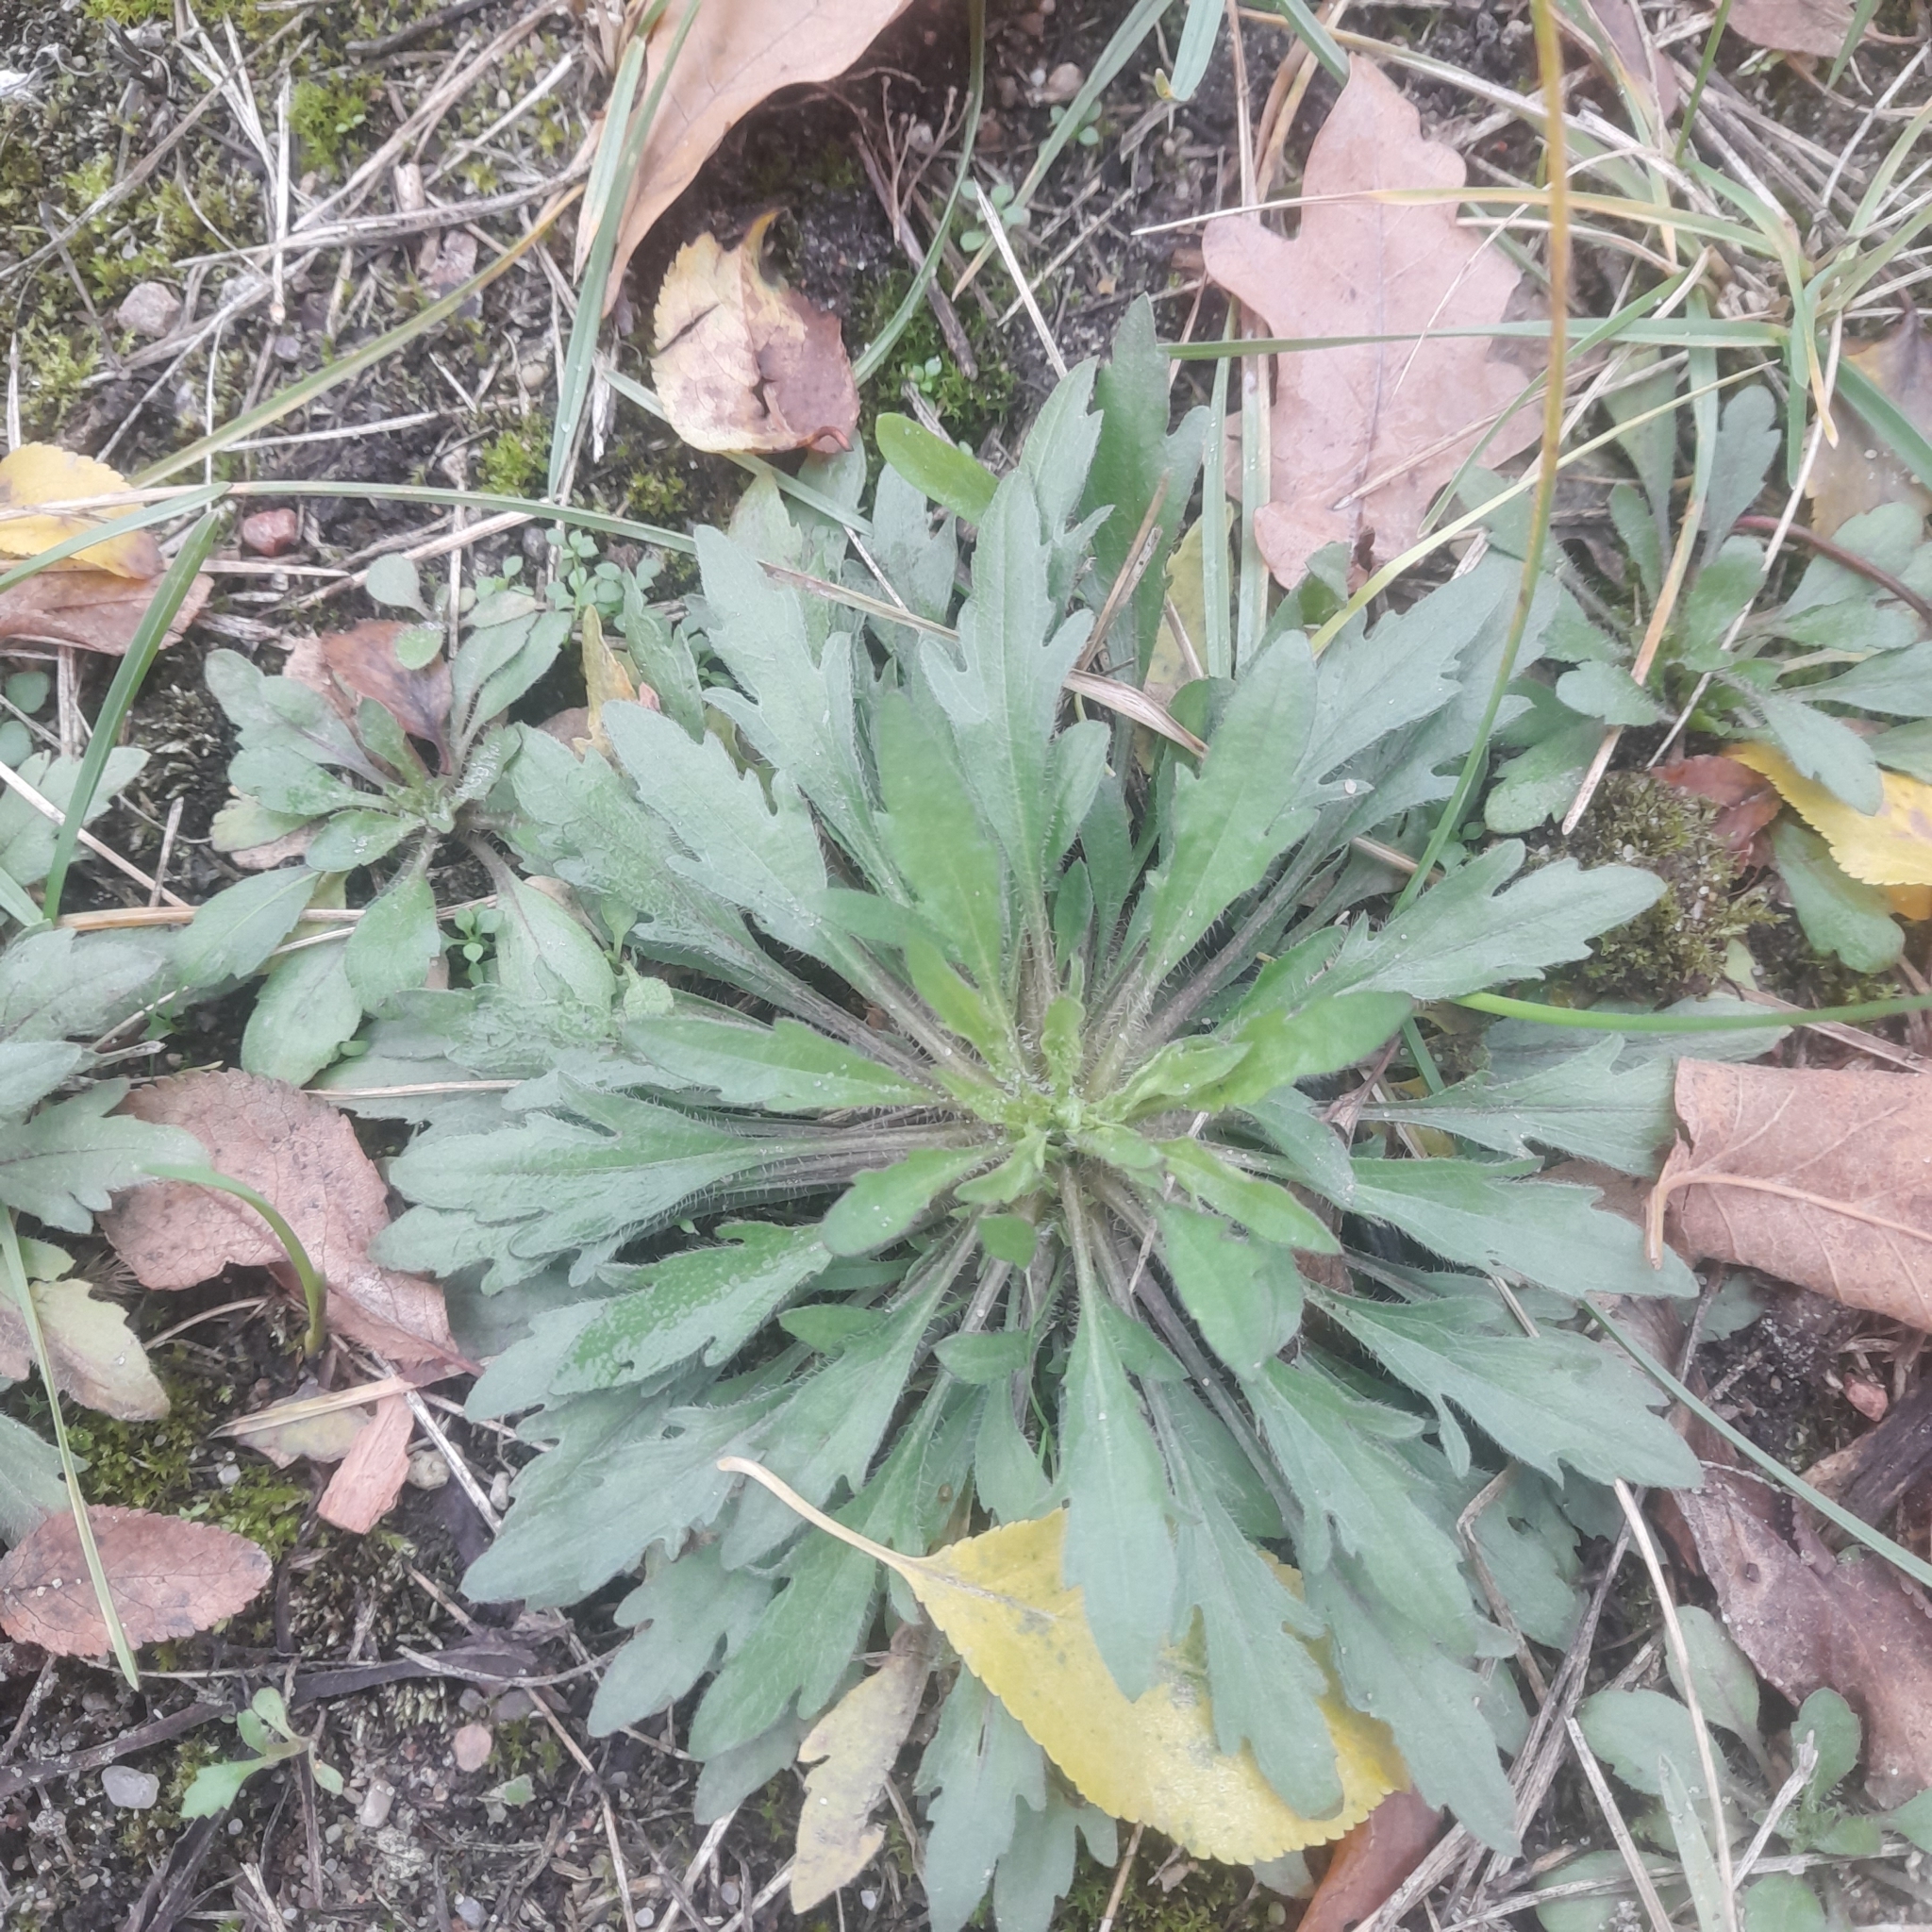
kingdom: Plantae
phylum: Tracheophyta
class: Magnoliopsida
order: Asterales
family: Asteraceae
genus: Erigeron
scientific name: Erigeron canadensis
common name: Canadian fleabane
